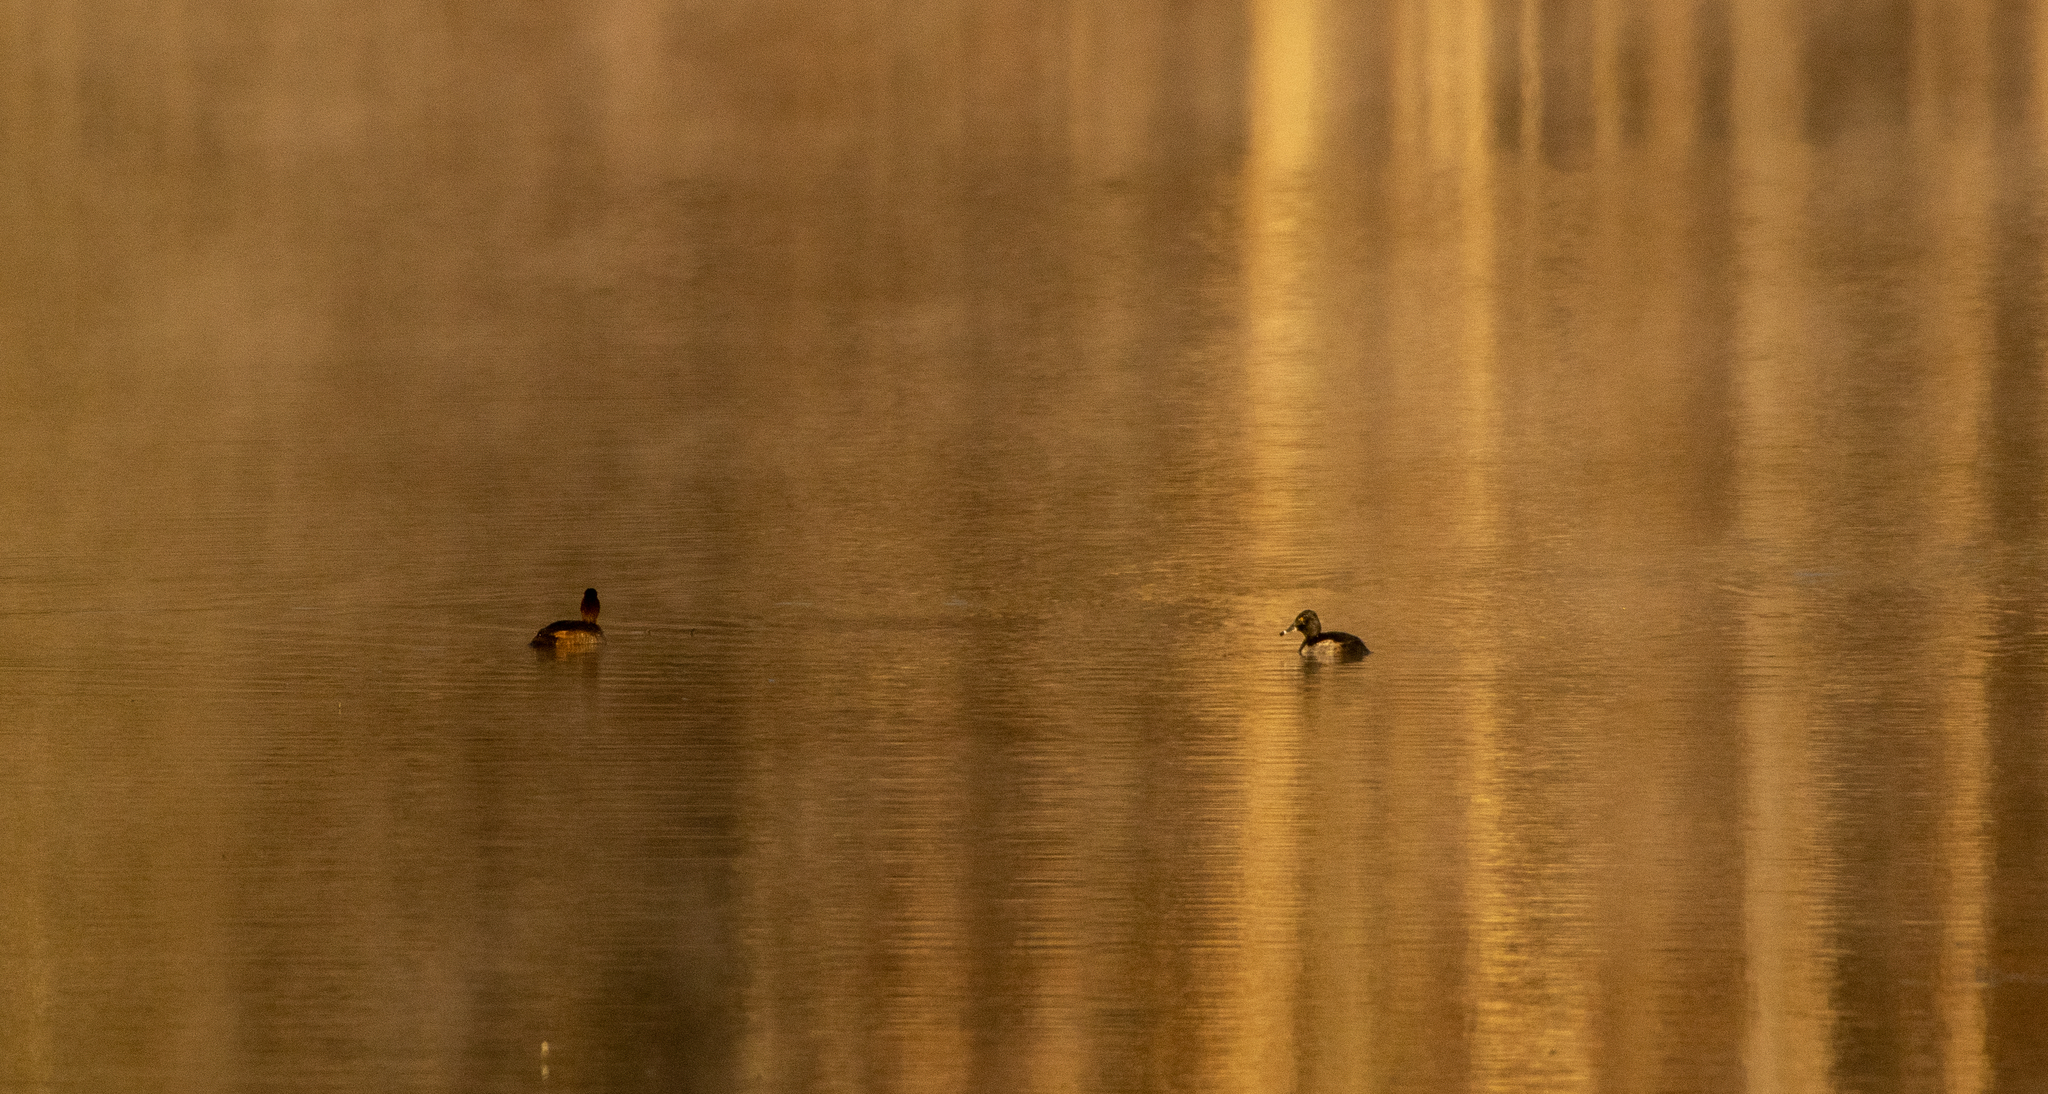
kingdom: Animalia
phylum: Chordata
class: Aves
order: Anseriformes
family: Anatidae
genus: Aythya
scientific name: Aythya collaris
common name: Ring-necked duck
